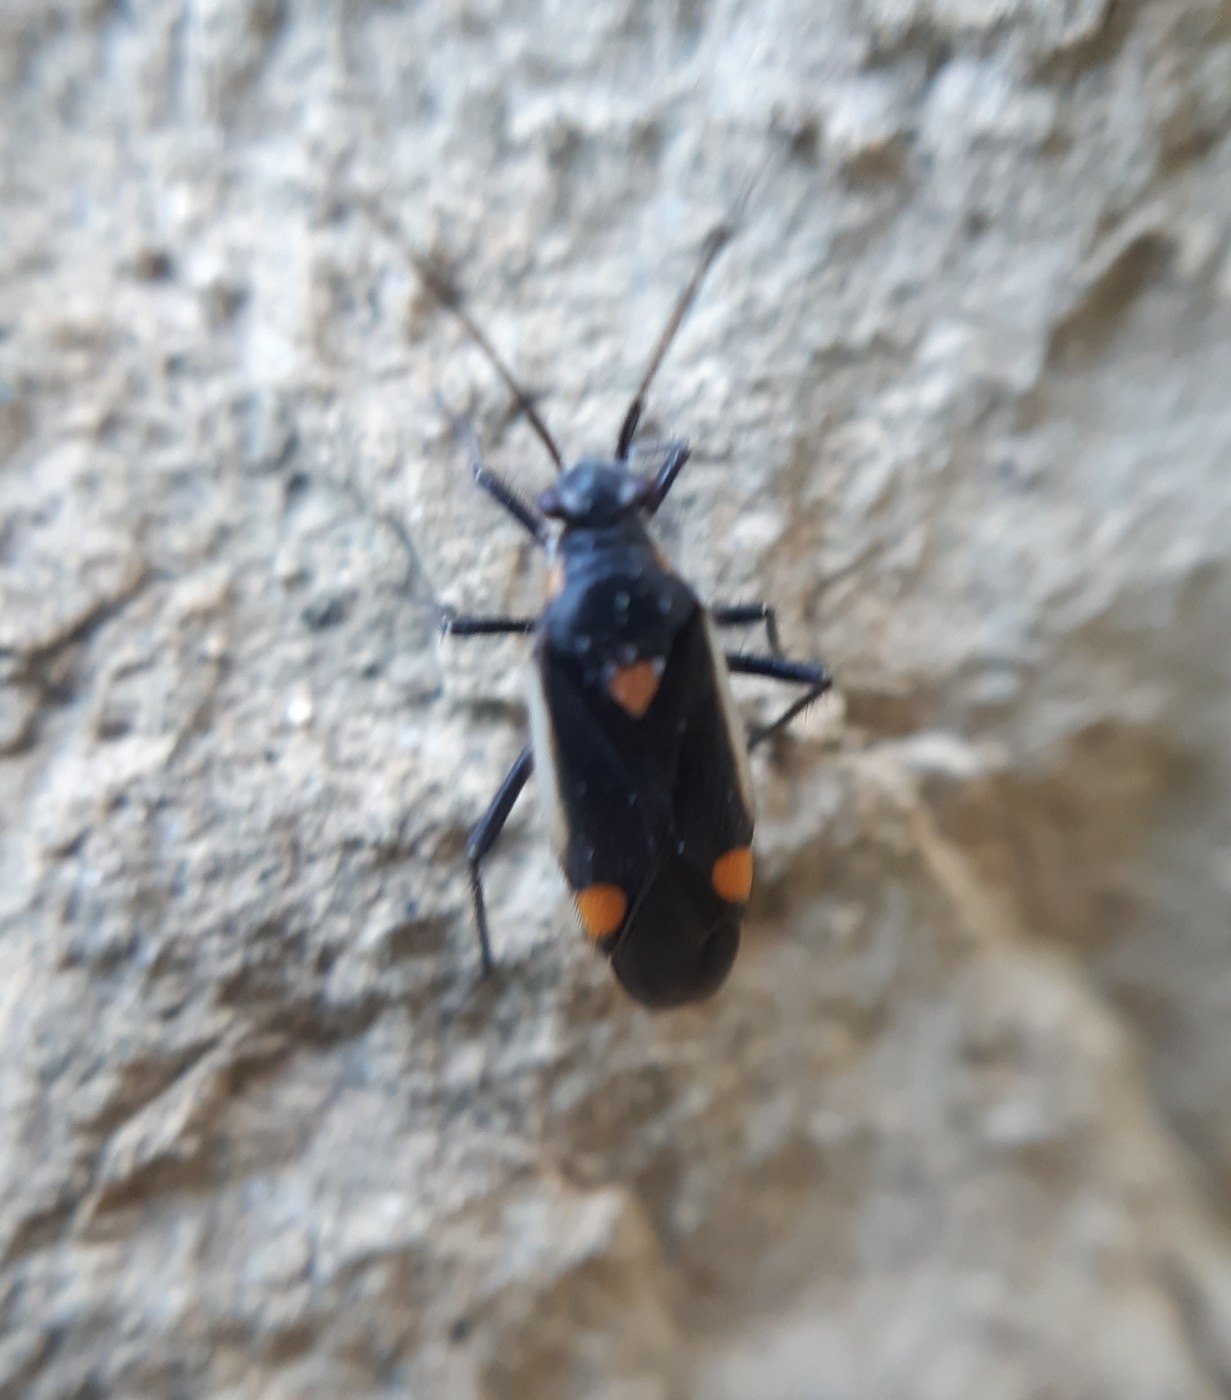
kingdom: Animalia
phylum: Arthropoda
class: Insecta
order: Hemiptera
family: Miridae
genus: Capsodes
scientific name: Capsodes gothicus
